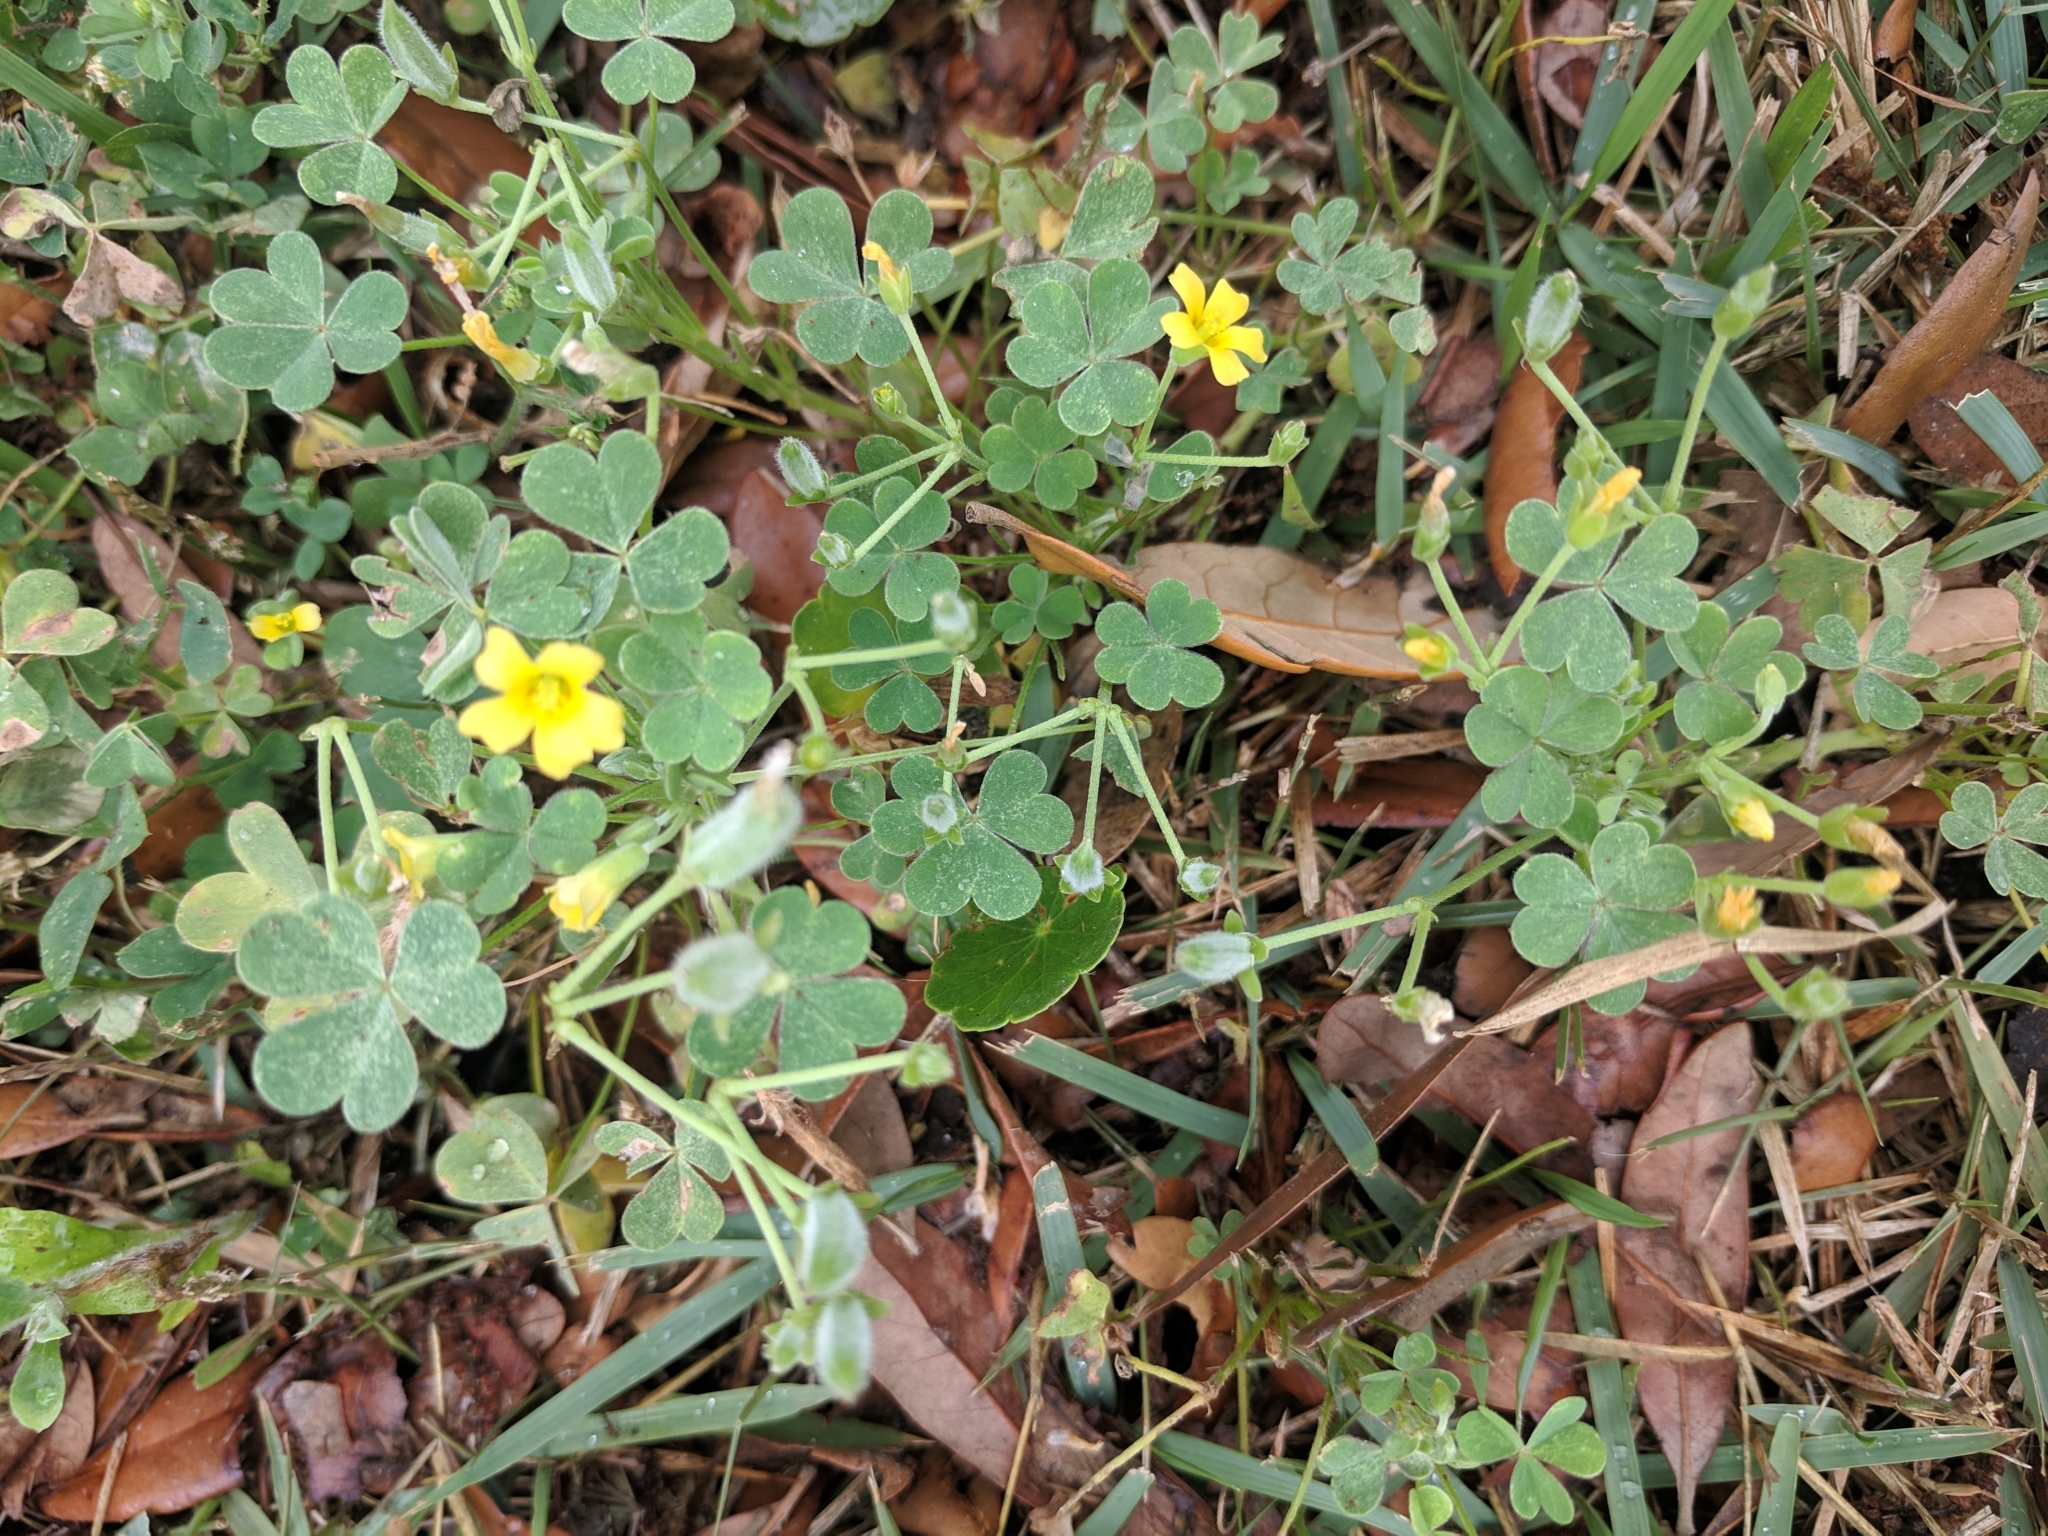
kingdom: Plantae
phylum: Tracheophyta
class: Magnoliopsida
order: Oxalidales
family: Oxalidaceae
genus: Oxalis
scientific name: Oxalis corniculata
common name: Procumbent yellow-sorrel
